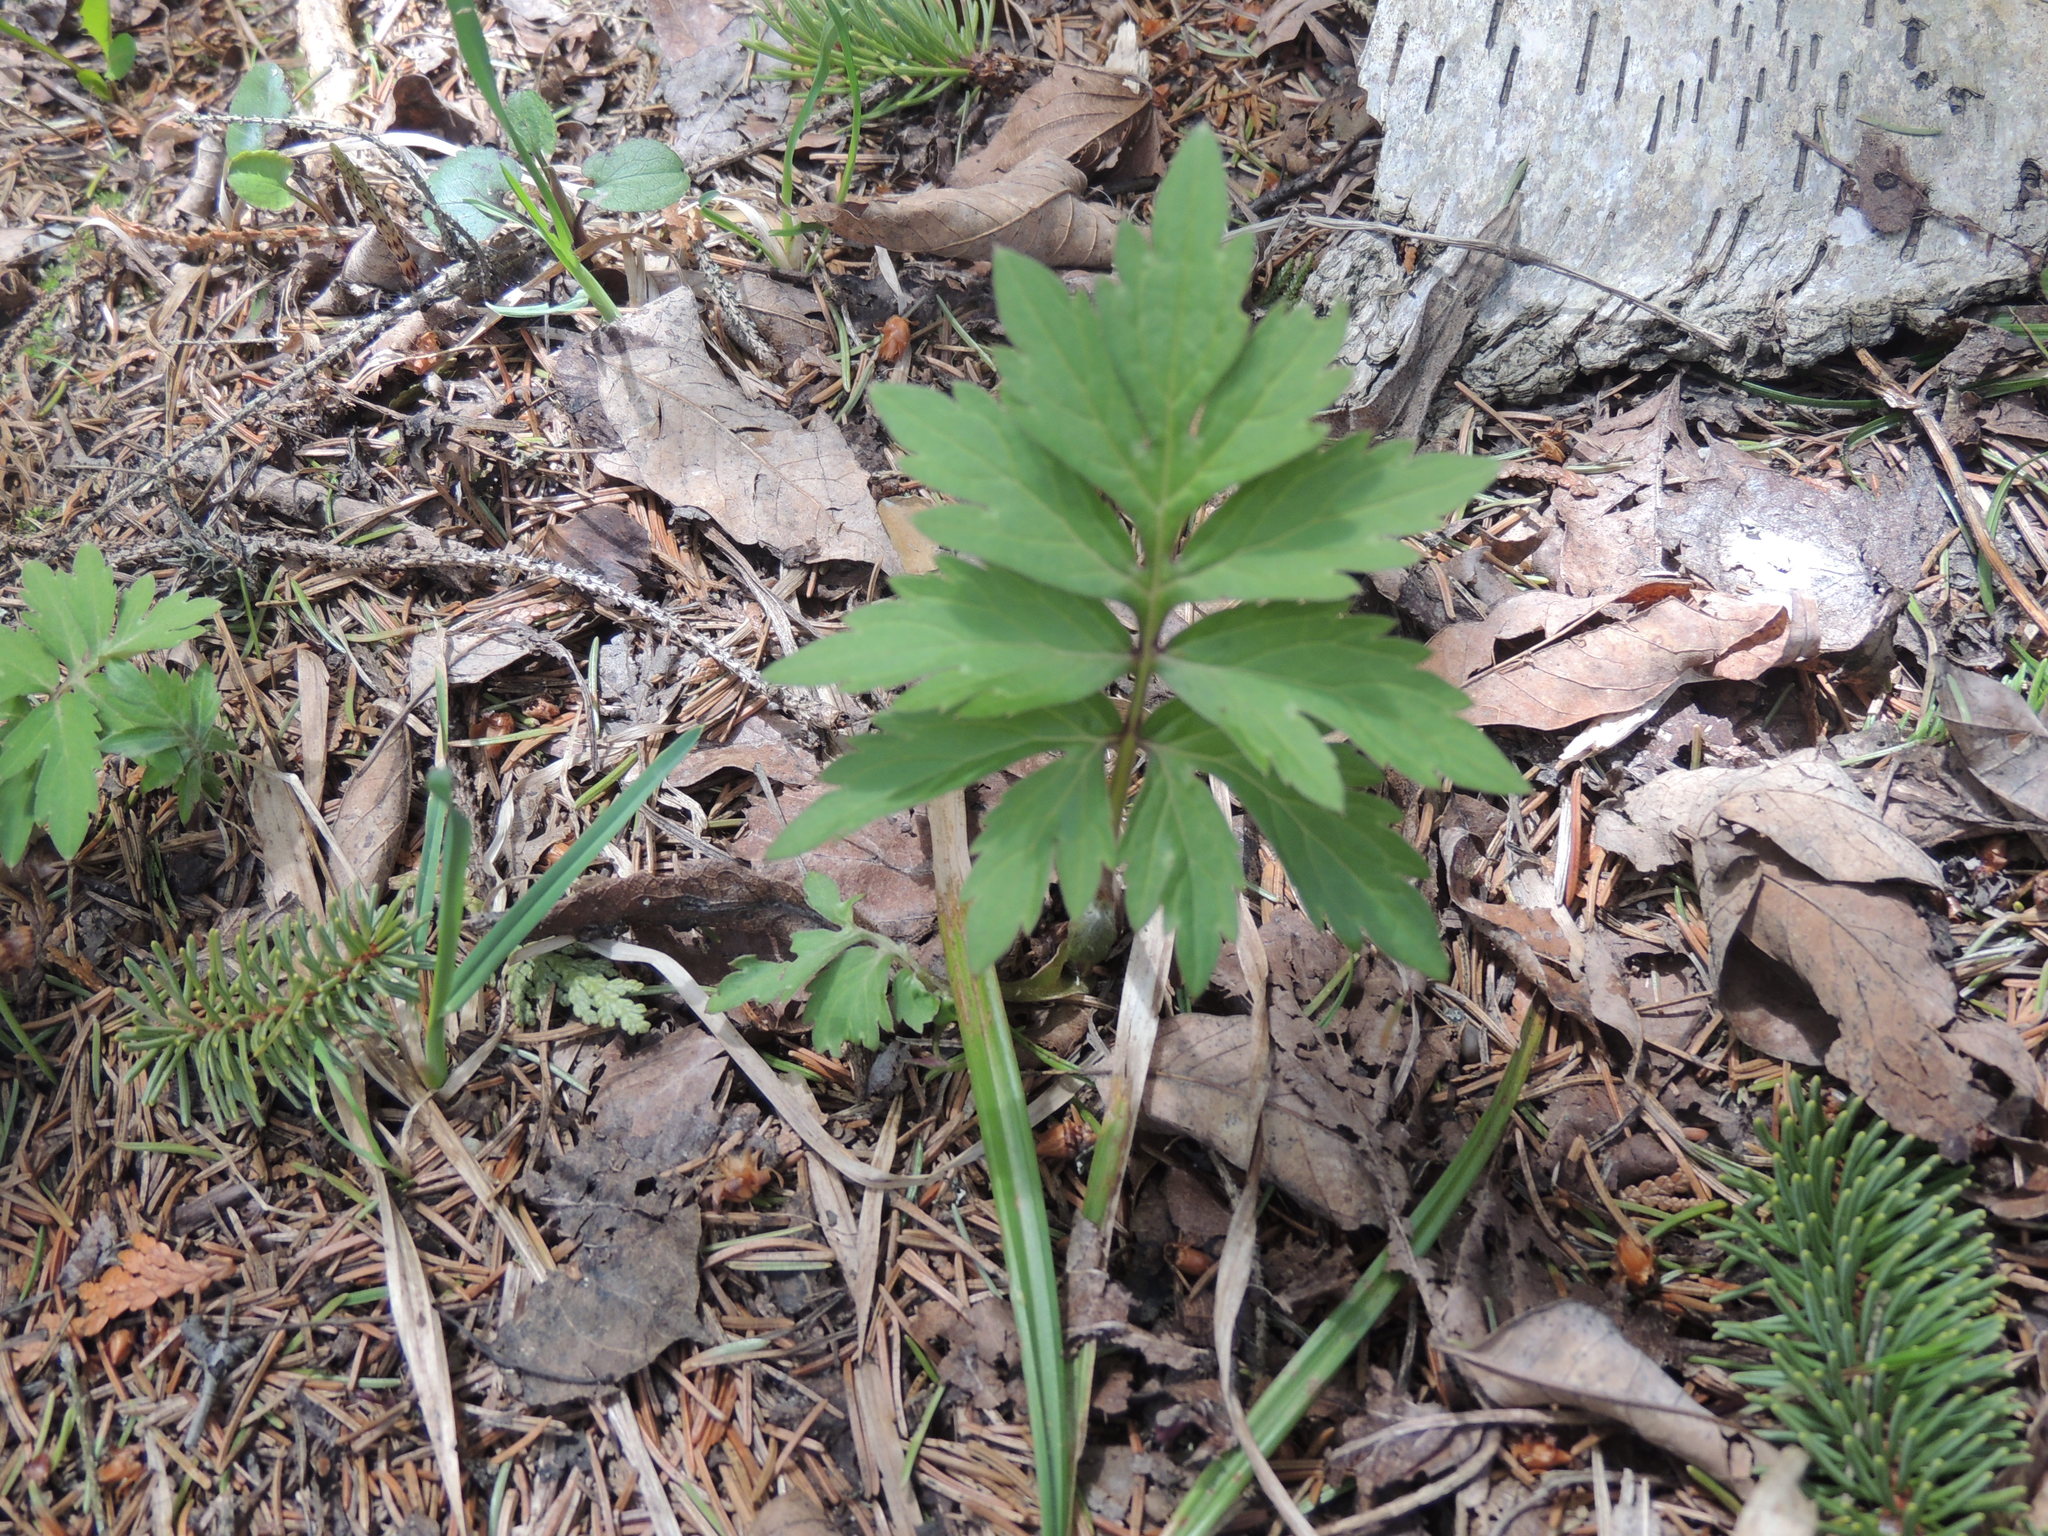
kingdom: Plantae
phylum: Tracheophyta
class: Magnoliopsida
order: Boraginales
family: Hydrophyllaceae
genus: Hydrophyllum
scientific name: Hydrophyllum virginianum
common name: Virginia waterleaf
